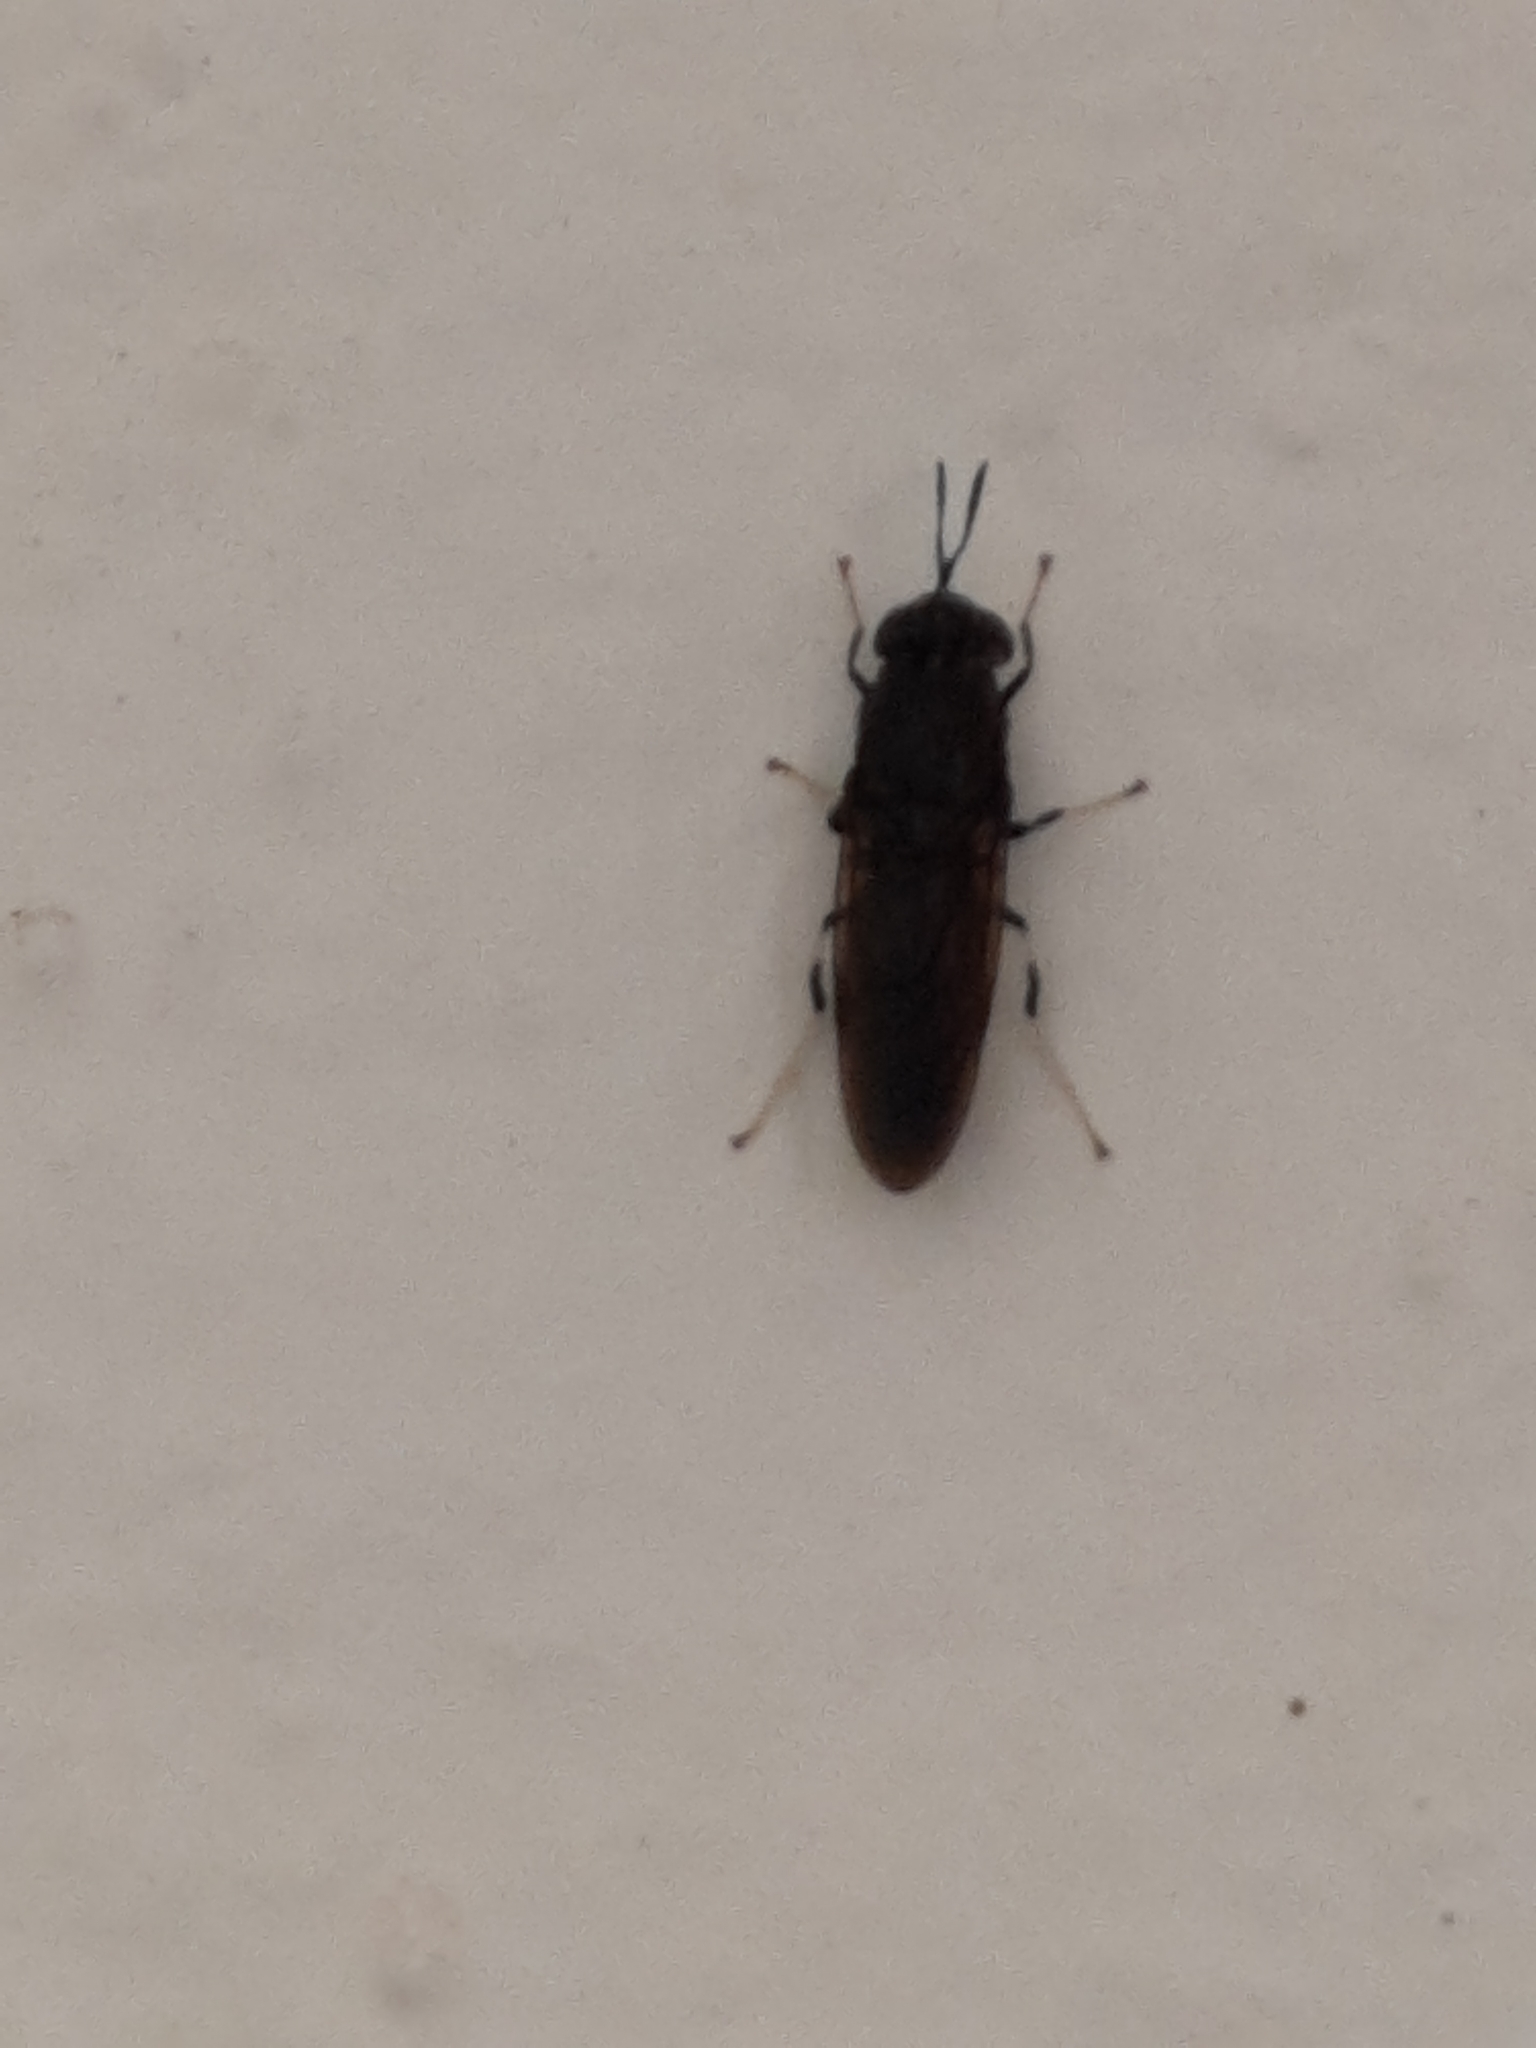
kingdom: Animalia
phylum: Arthropoda
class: Insecta
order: Diptera
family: Stratiomyidae
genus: Hermetia
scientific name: Hermetia illucens
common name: Black soldier fly
